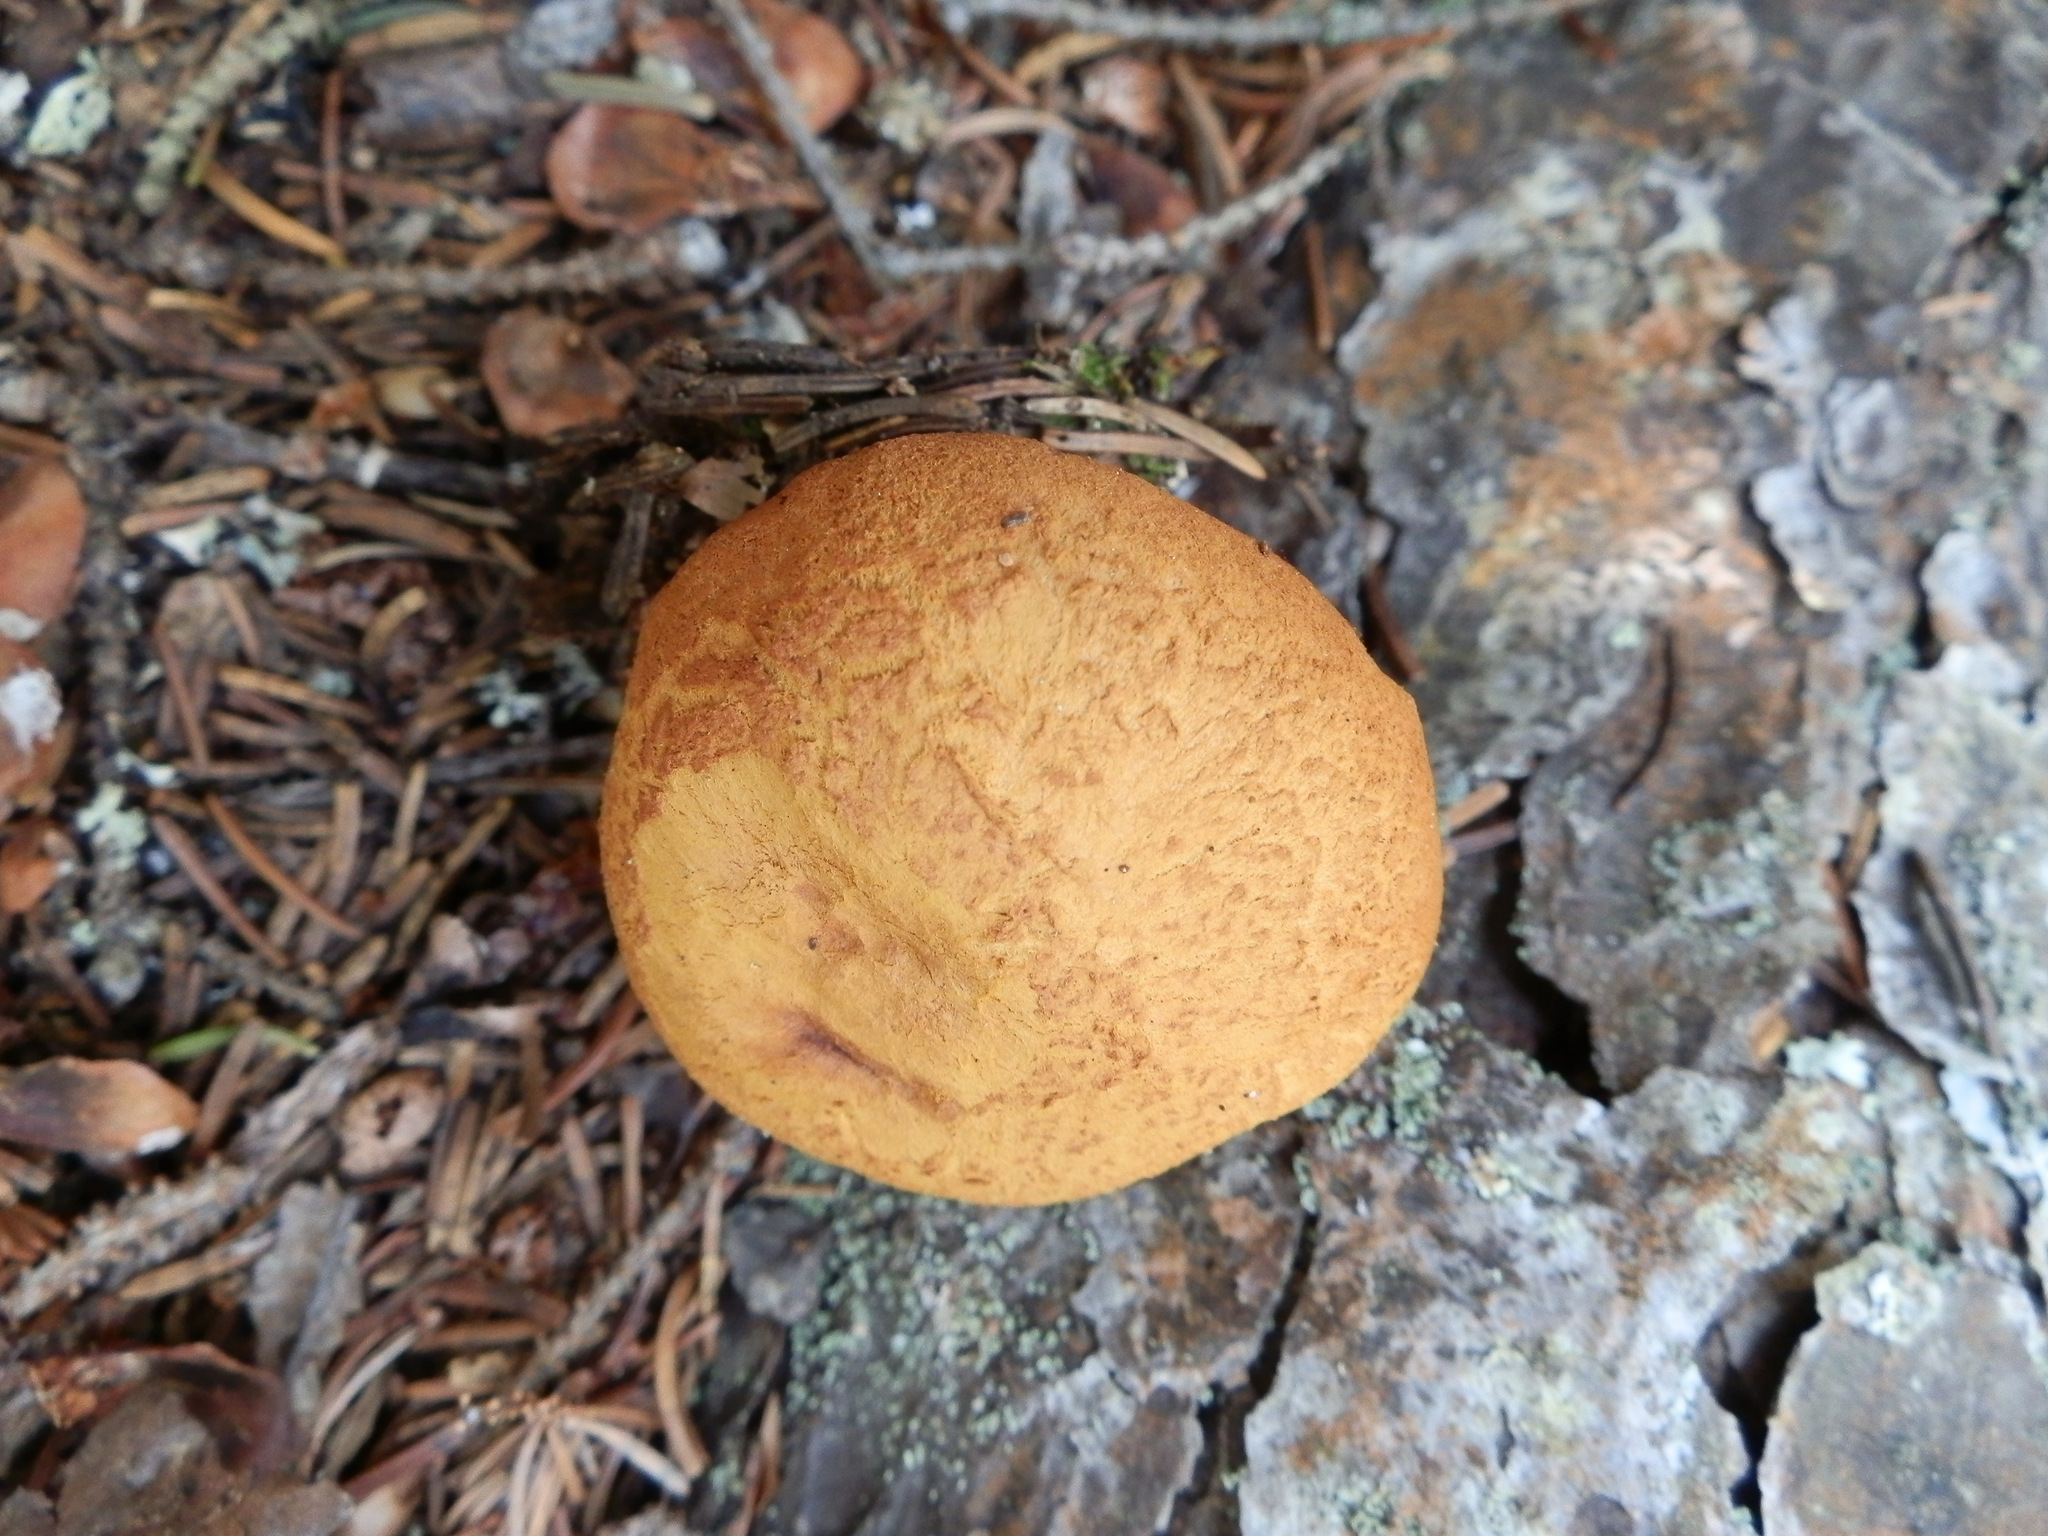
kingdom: Fungi
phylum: Basidiomycota
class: Agaricomycetes
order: Boletales
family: Boletaceae
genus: Buchwaldoboletus
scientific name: Buchwaldoboletus lignicola
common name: Wood bolete
